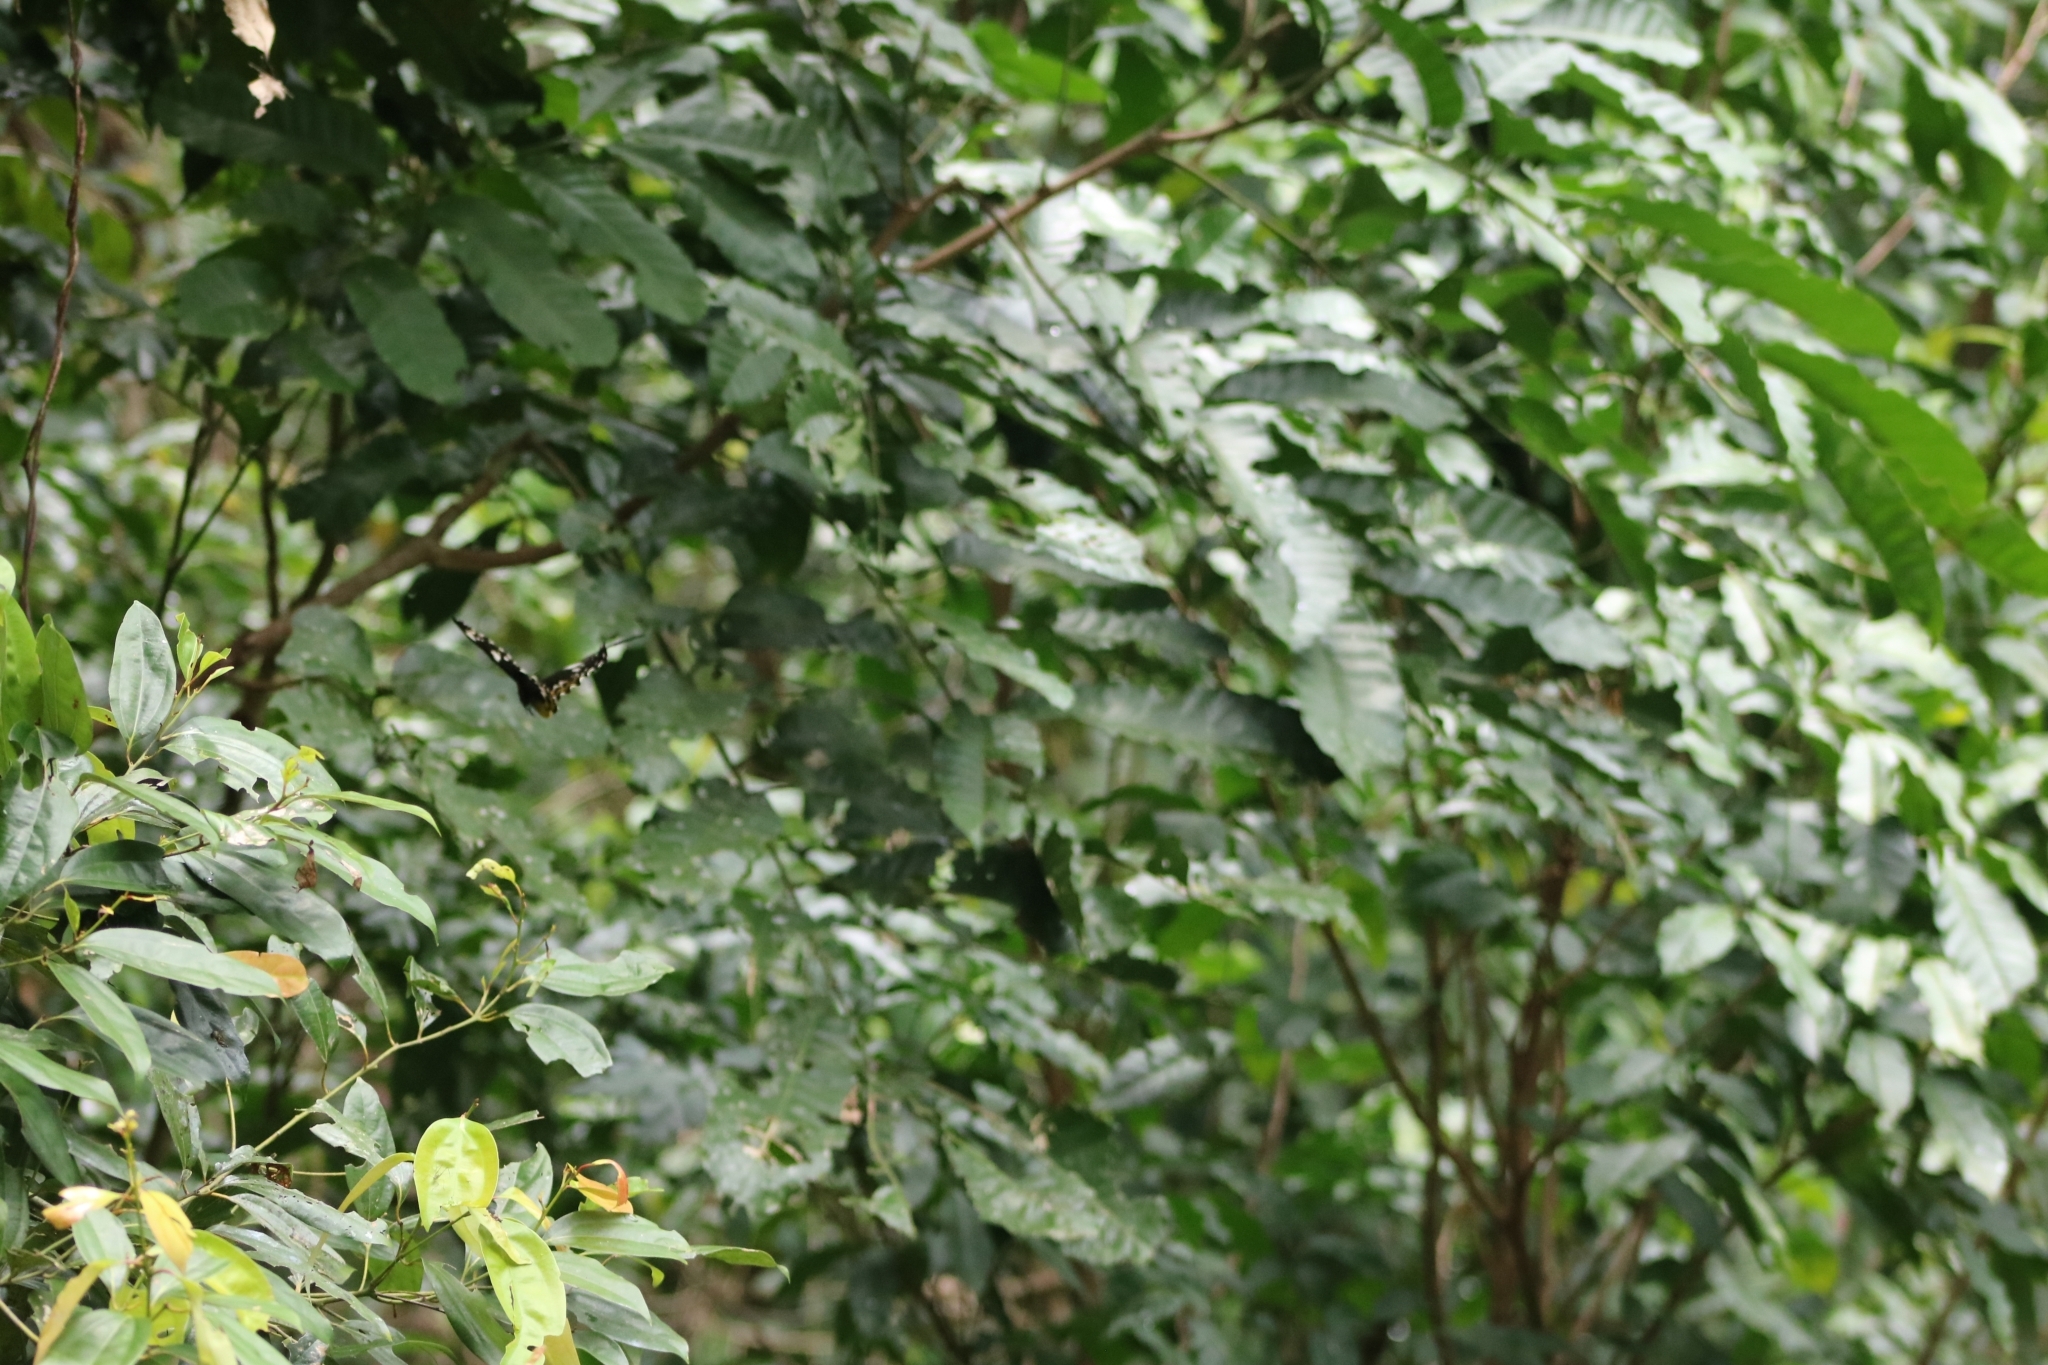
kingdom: Animalia
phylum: Arthropoda
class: Insecta
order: Lepidoptera
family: Papilionidae
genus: Ornithoptera
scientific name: Ornithoptera euphorion
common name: Cairns birdwing
